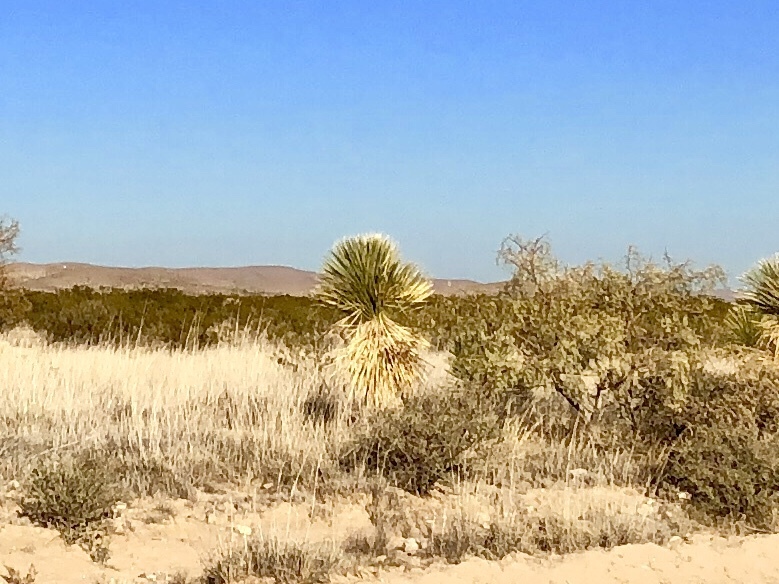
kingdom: Plantae
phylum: Tracheophyta
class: Liliopsida
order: Asparagales
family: Asparagaceae
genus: Yucca
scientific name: Yucca elata
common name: Palmella
